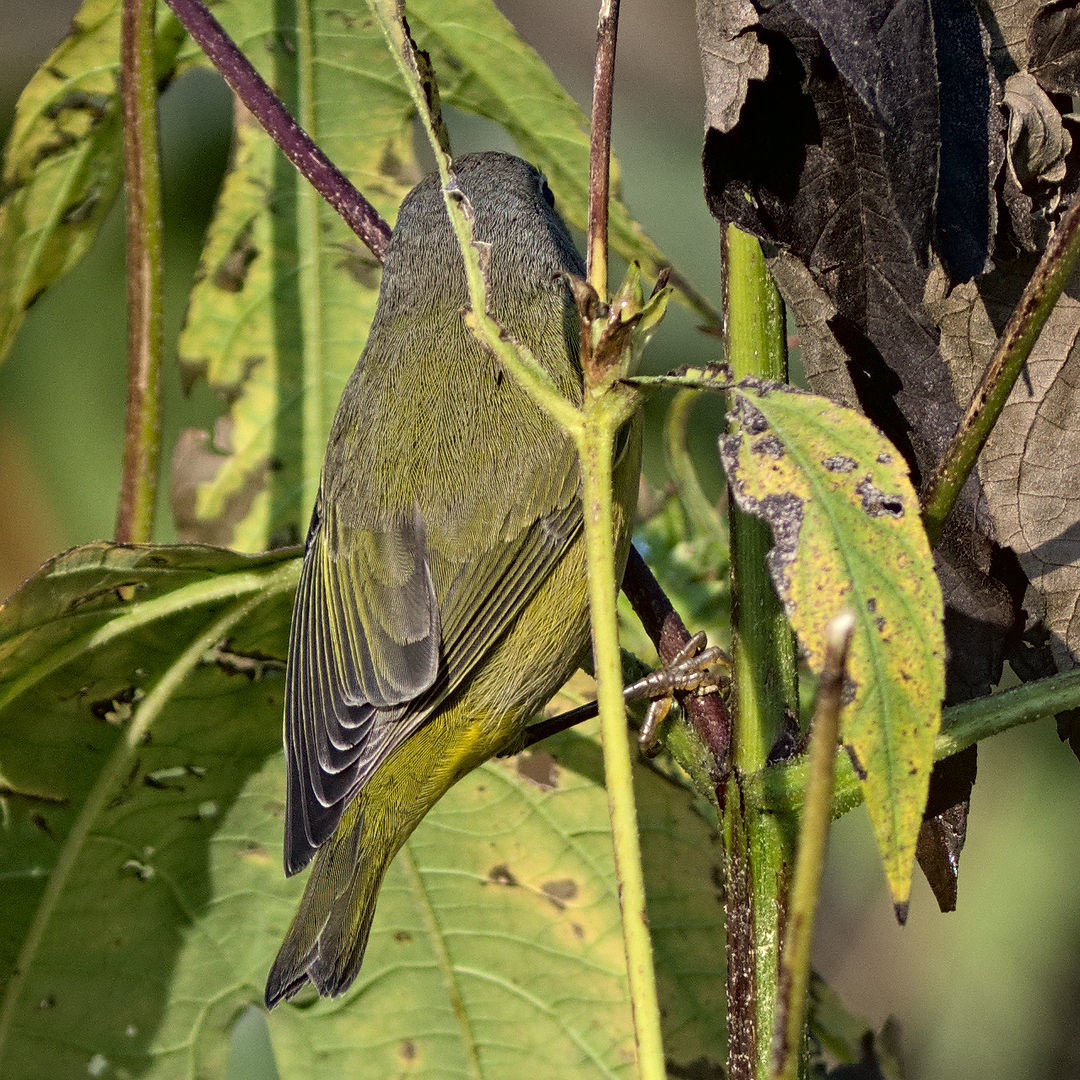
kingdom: Animalia
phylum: Chordata
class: Aves
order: Passeriformes
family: Parulidae
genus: Leiothlypis
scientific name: Leiothlypis ruficapilla
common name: Nashville warbler
